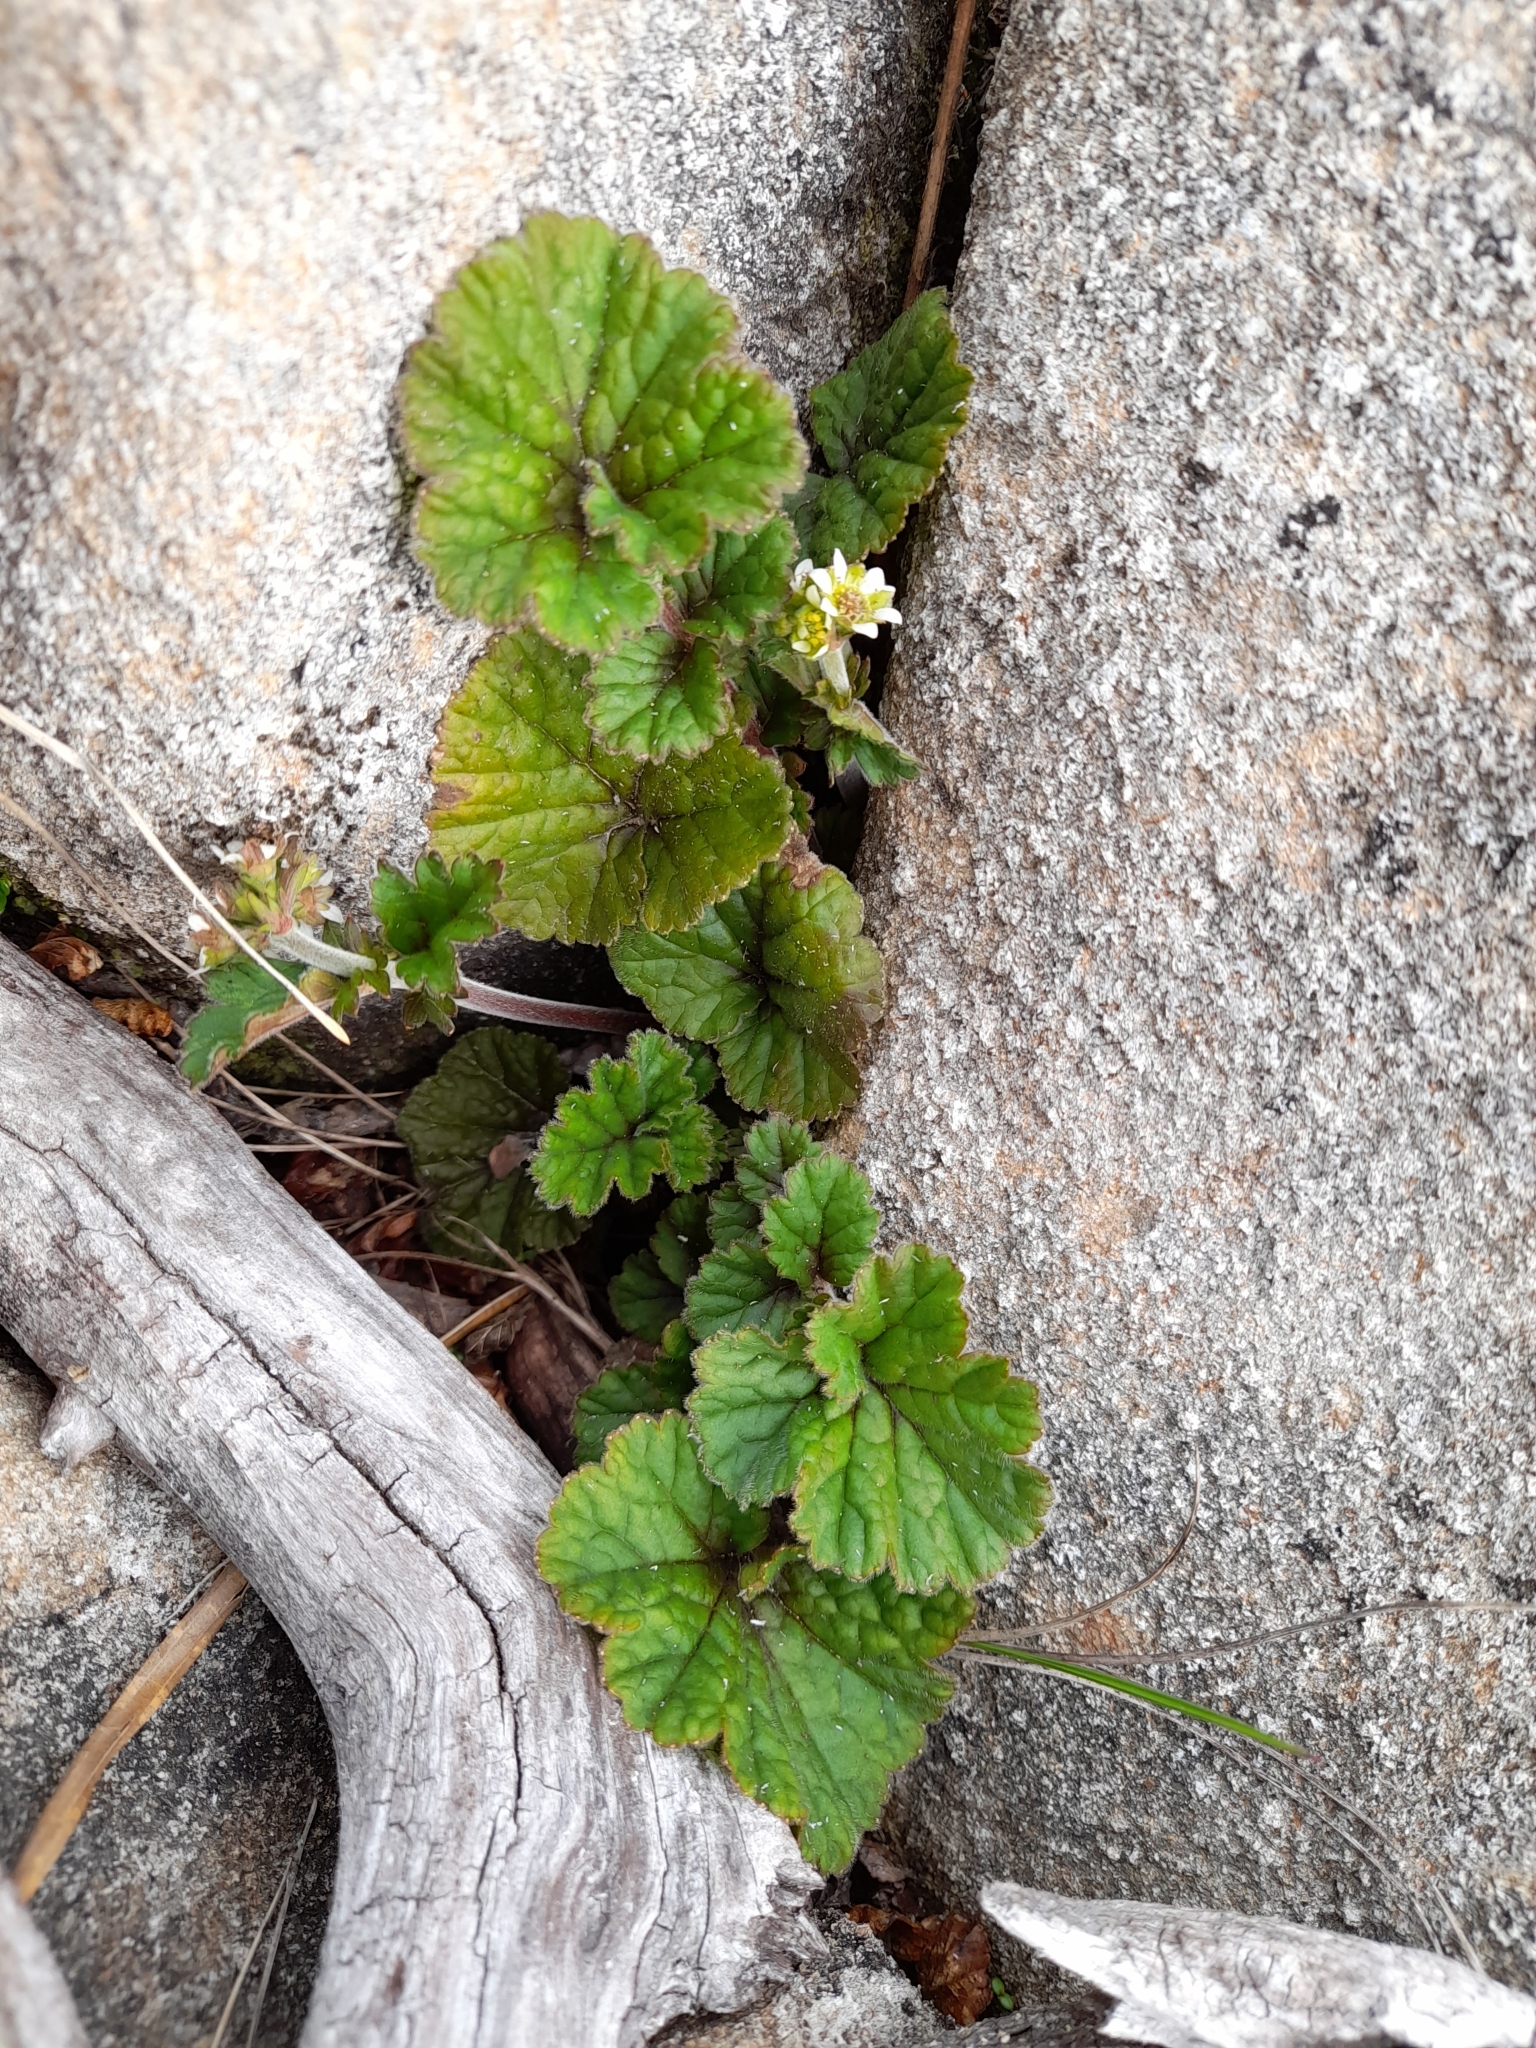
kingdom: Plantae
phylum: Tracheophyta
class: Magnoliopsida
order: Rosales
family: Rosaceae
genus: Geum
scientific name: Geum involucratum
